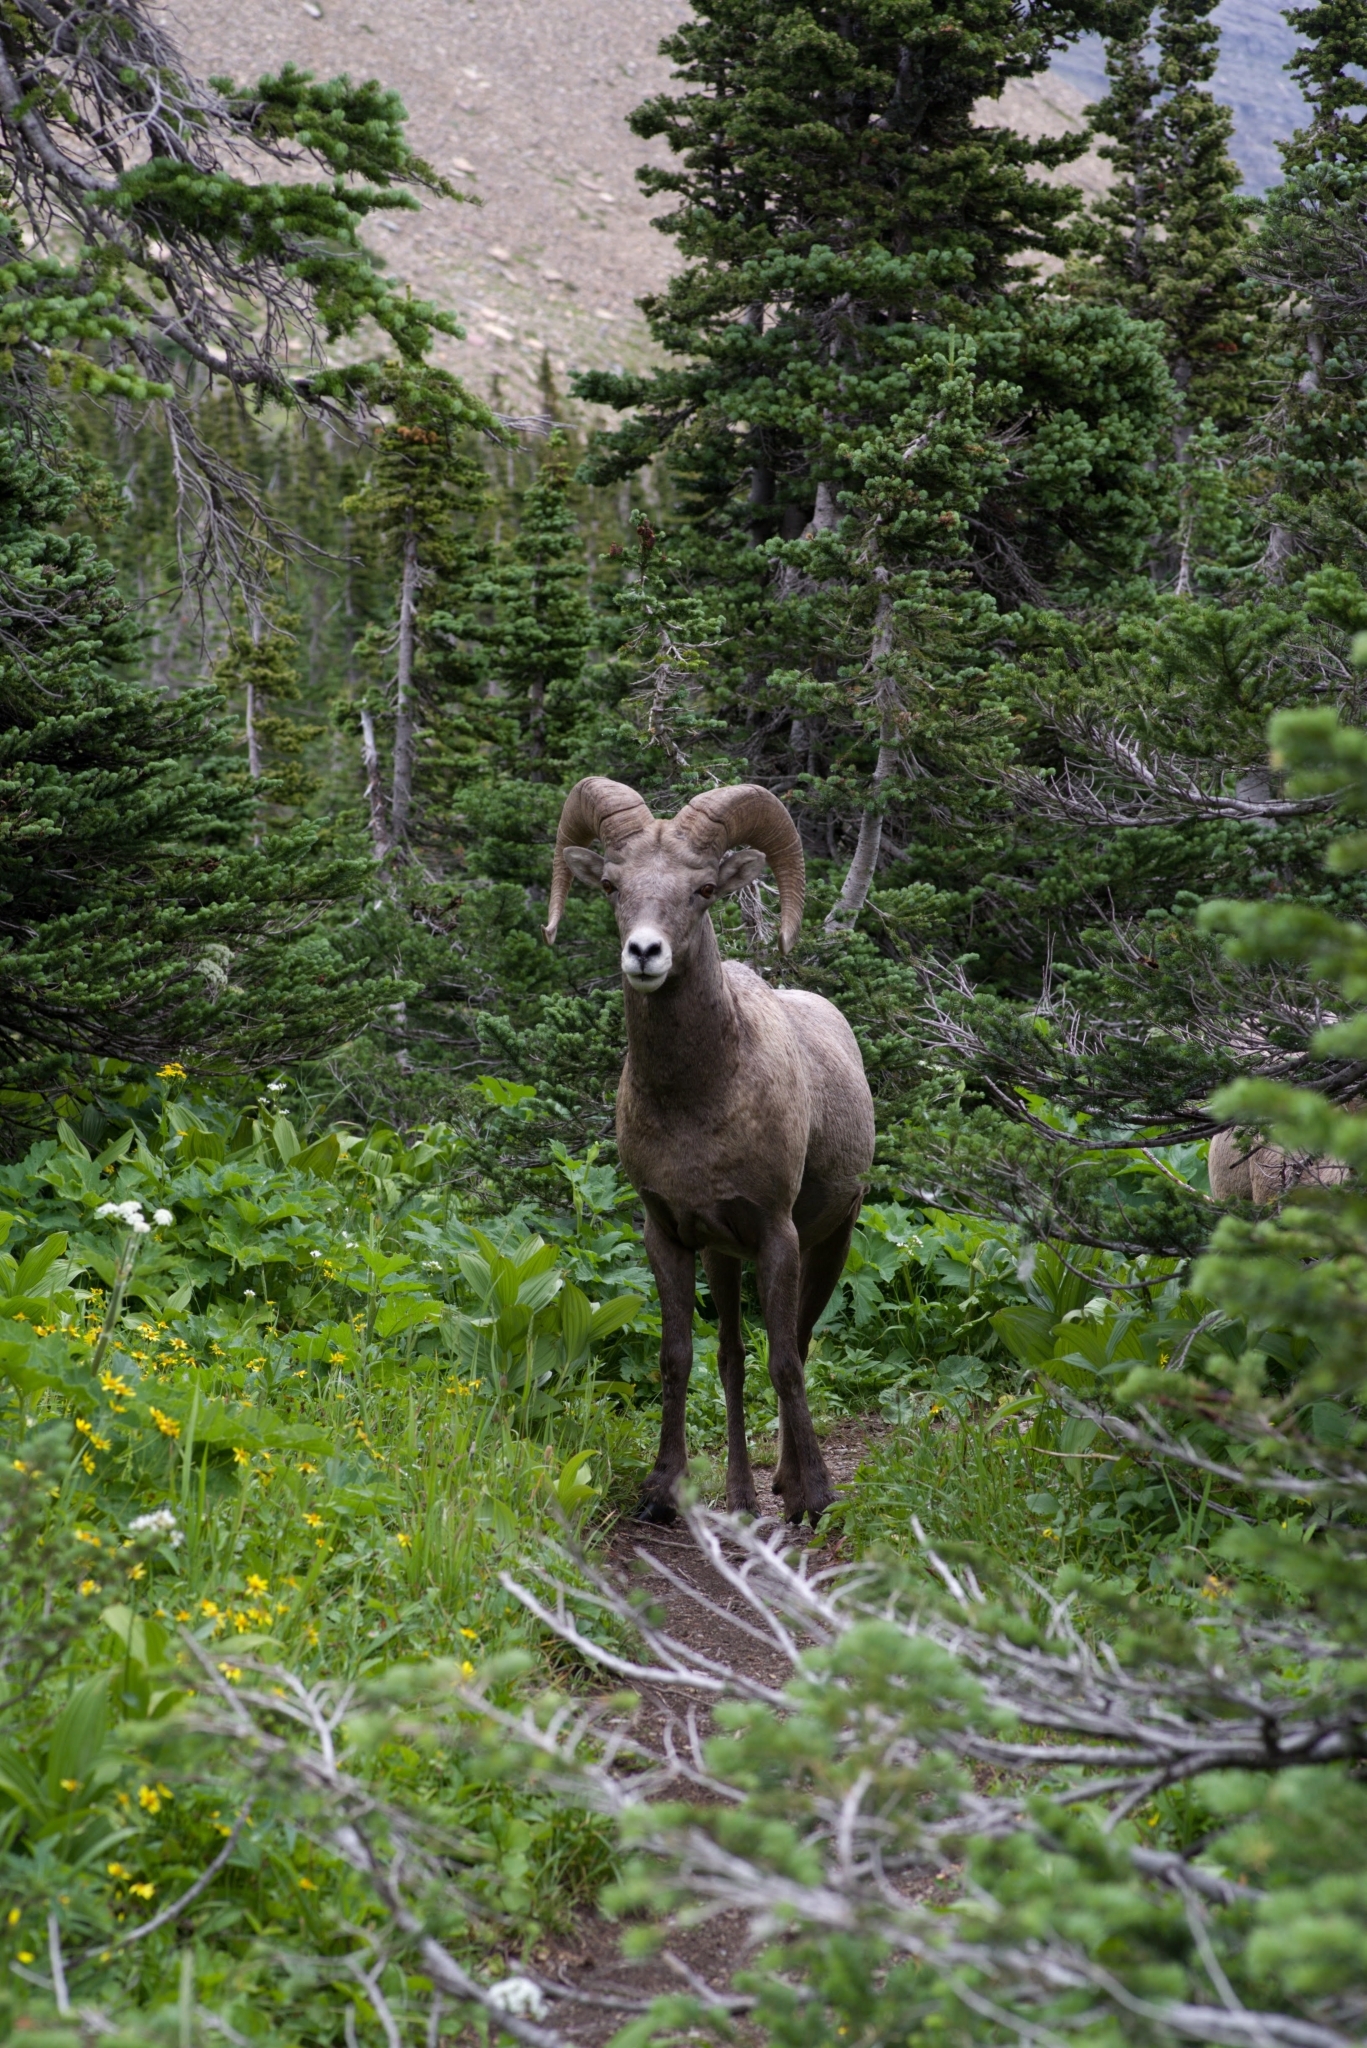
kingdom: Animalia
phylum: Chordata
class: Mammalia
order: Artiodactyla
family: Bovidae
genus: Ovis
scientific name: Ovis canadensis
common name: Bighorn sheep
